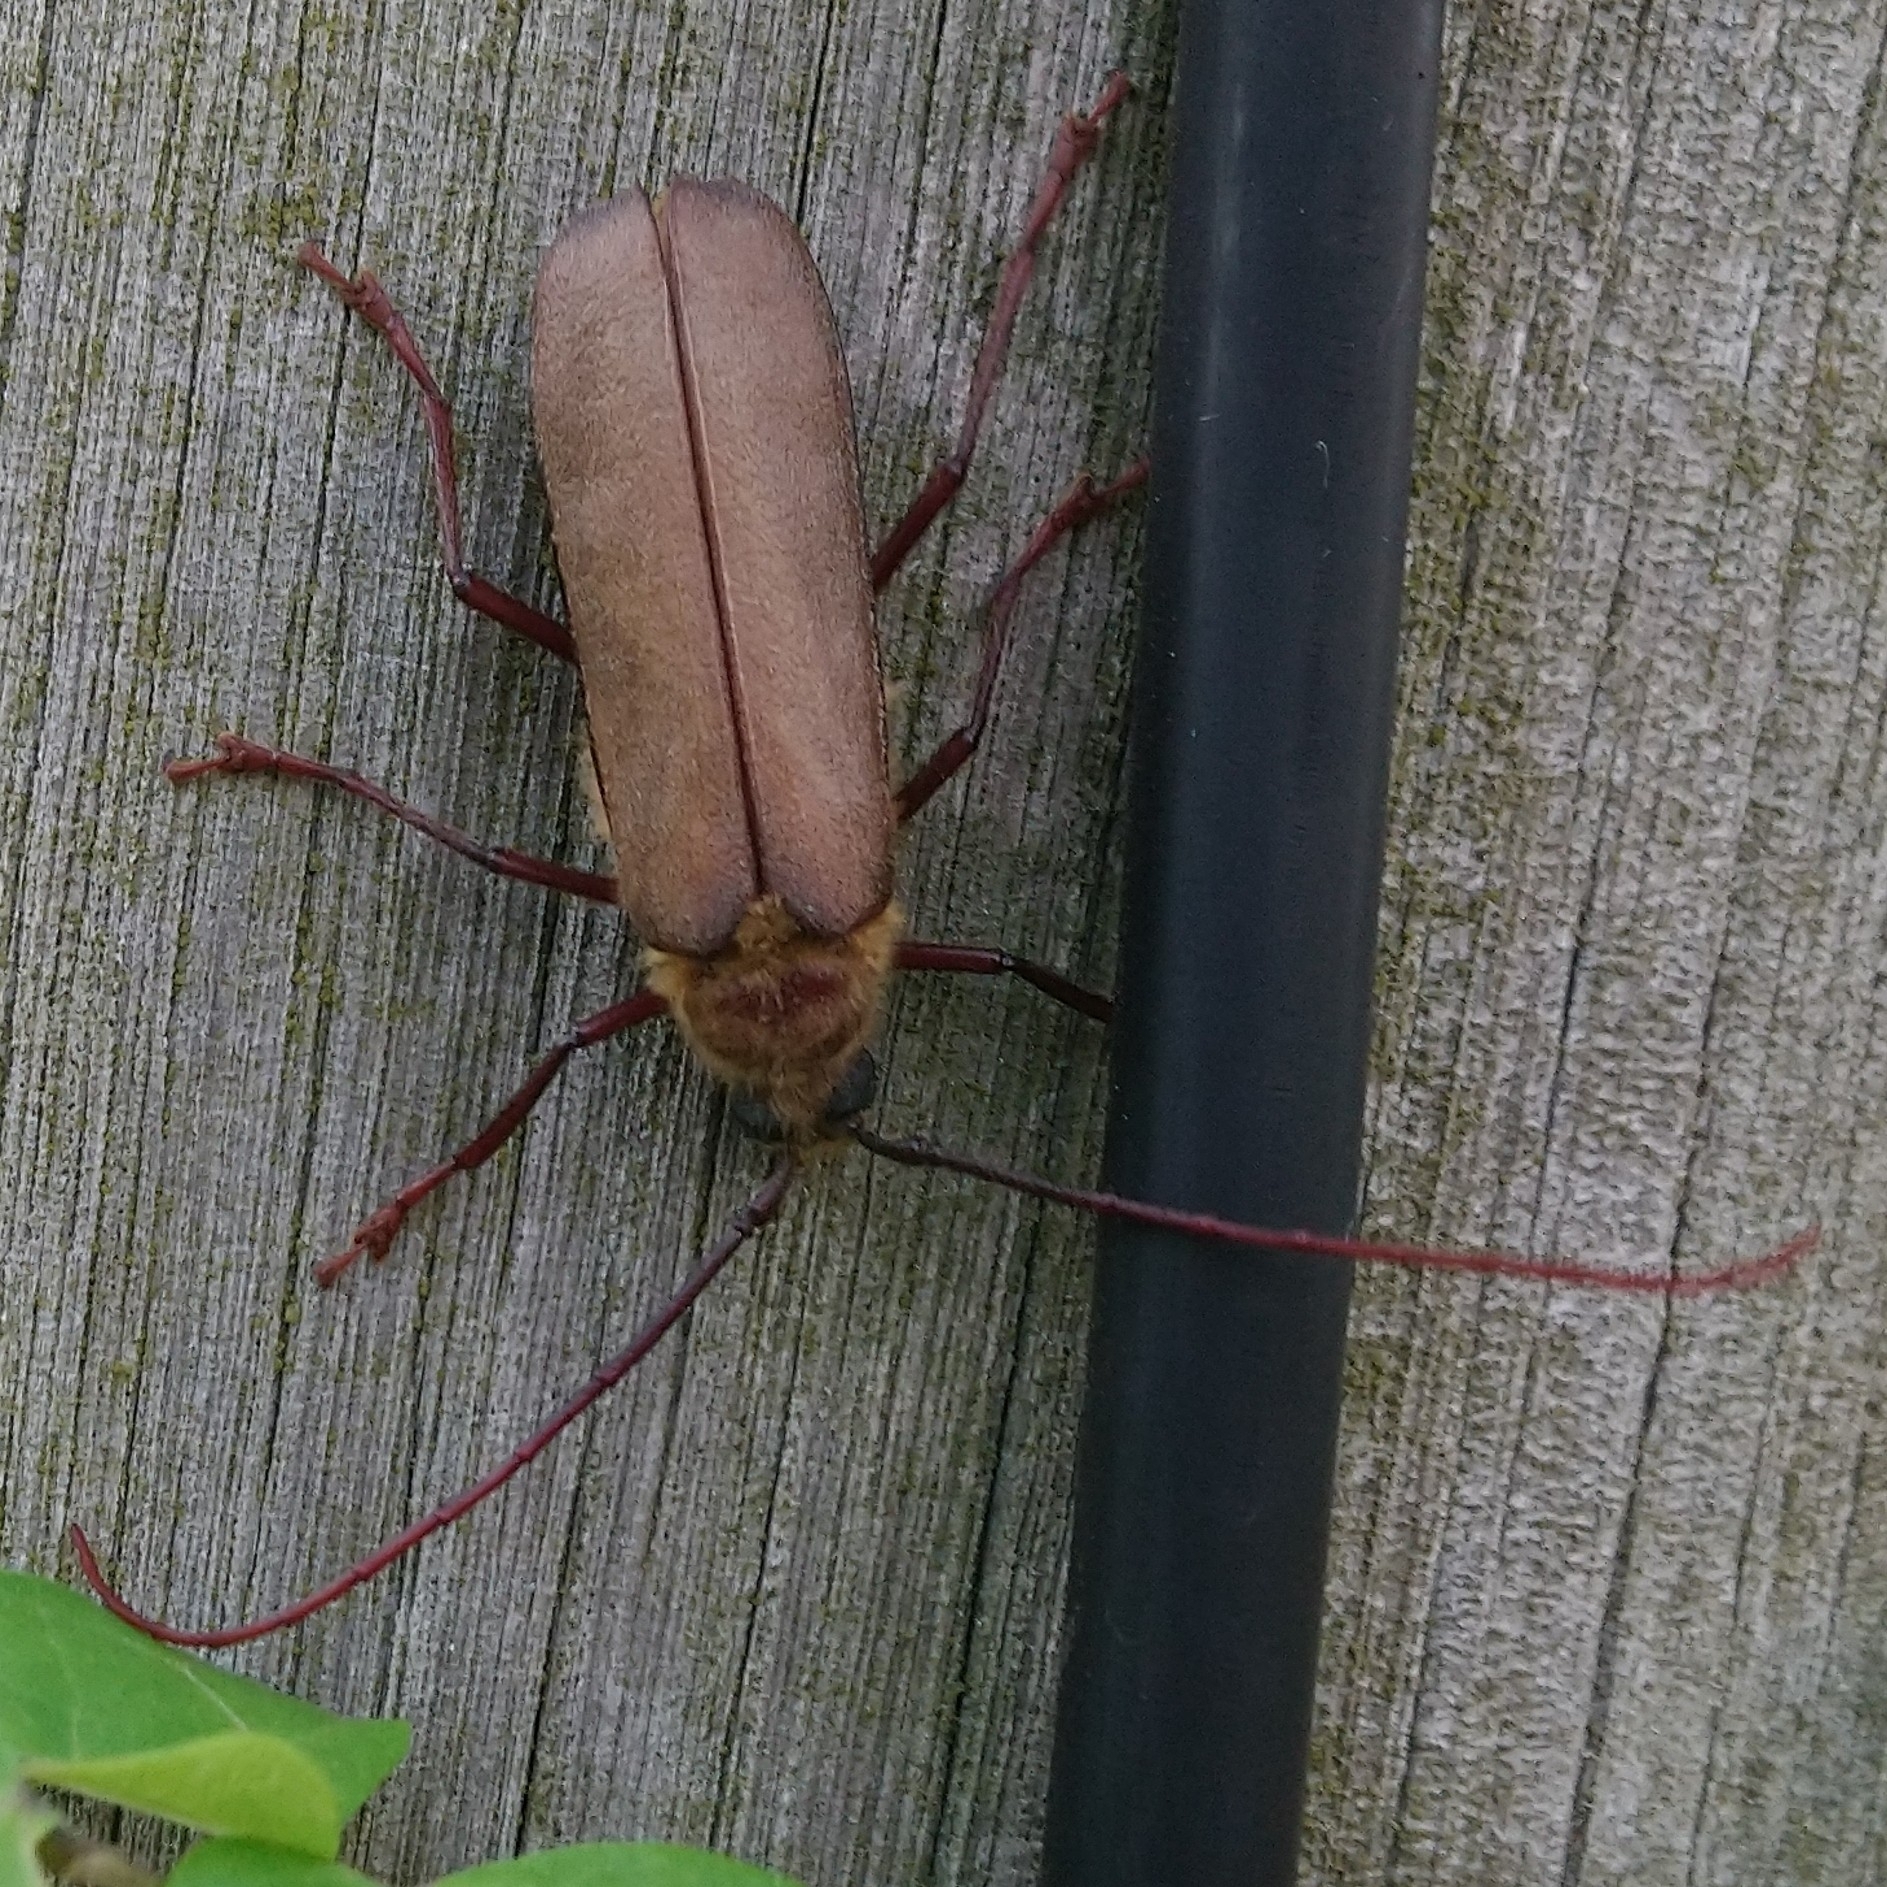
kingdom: Animalia
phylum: Arthropoda
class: Insecta
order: Coleoptera
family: Cerambycidae
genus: Erioderus
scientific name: Erioderus pallens
